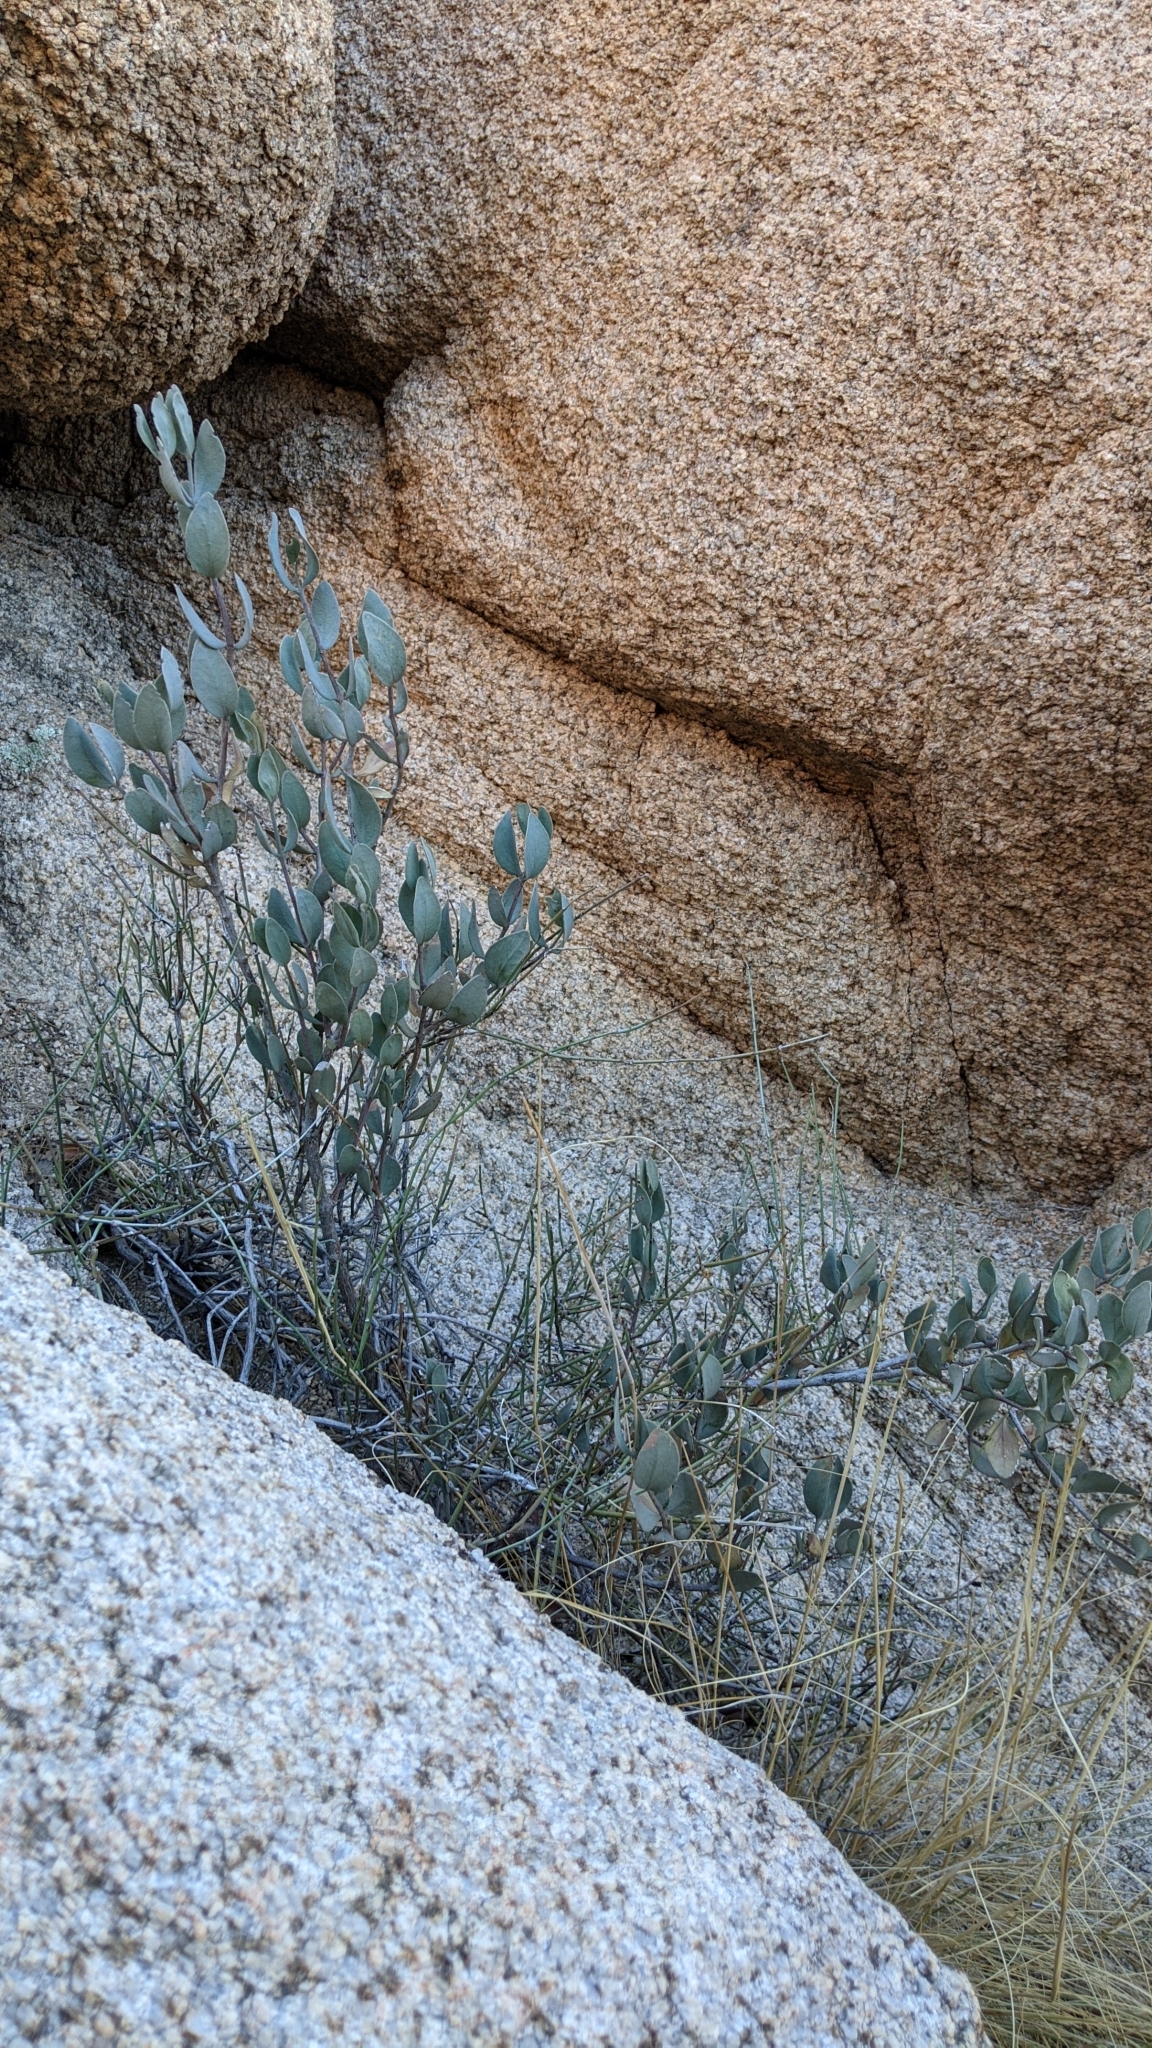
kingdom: Plantae
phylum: Tracheophyta
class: Magnoliopsida
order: Caryophyllales
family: Simmondsiaceae
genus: Simmondsia
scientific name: Simmondsia chinensis
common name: Jojoba
